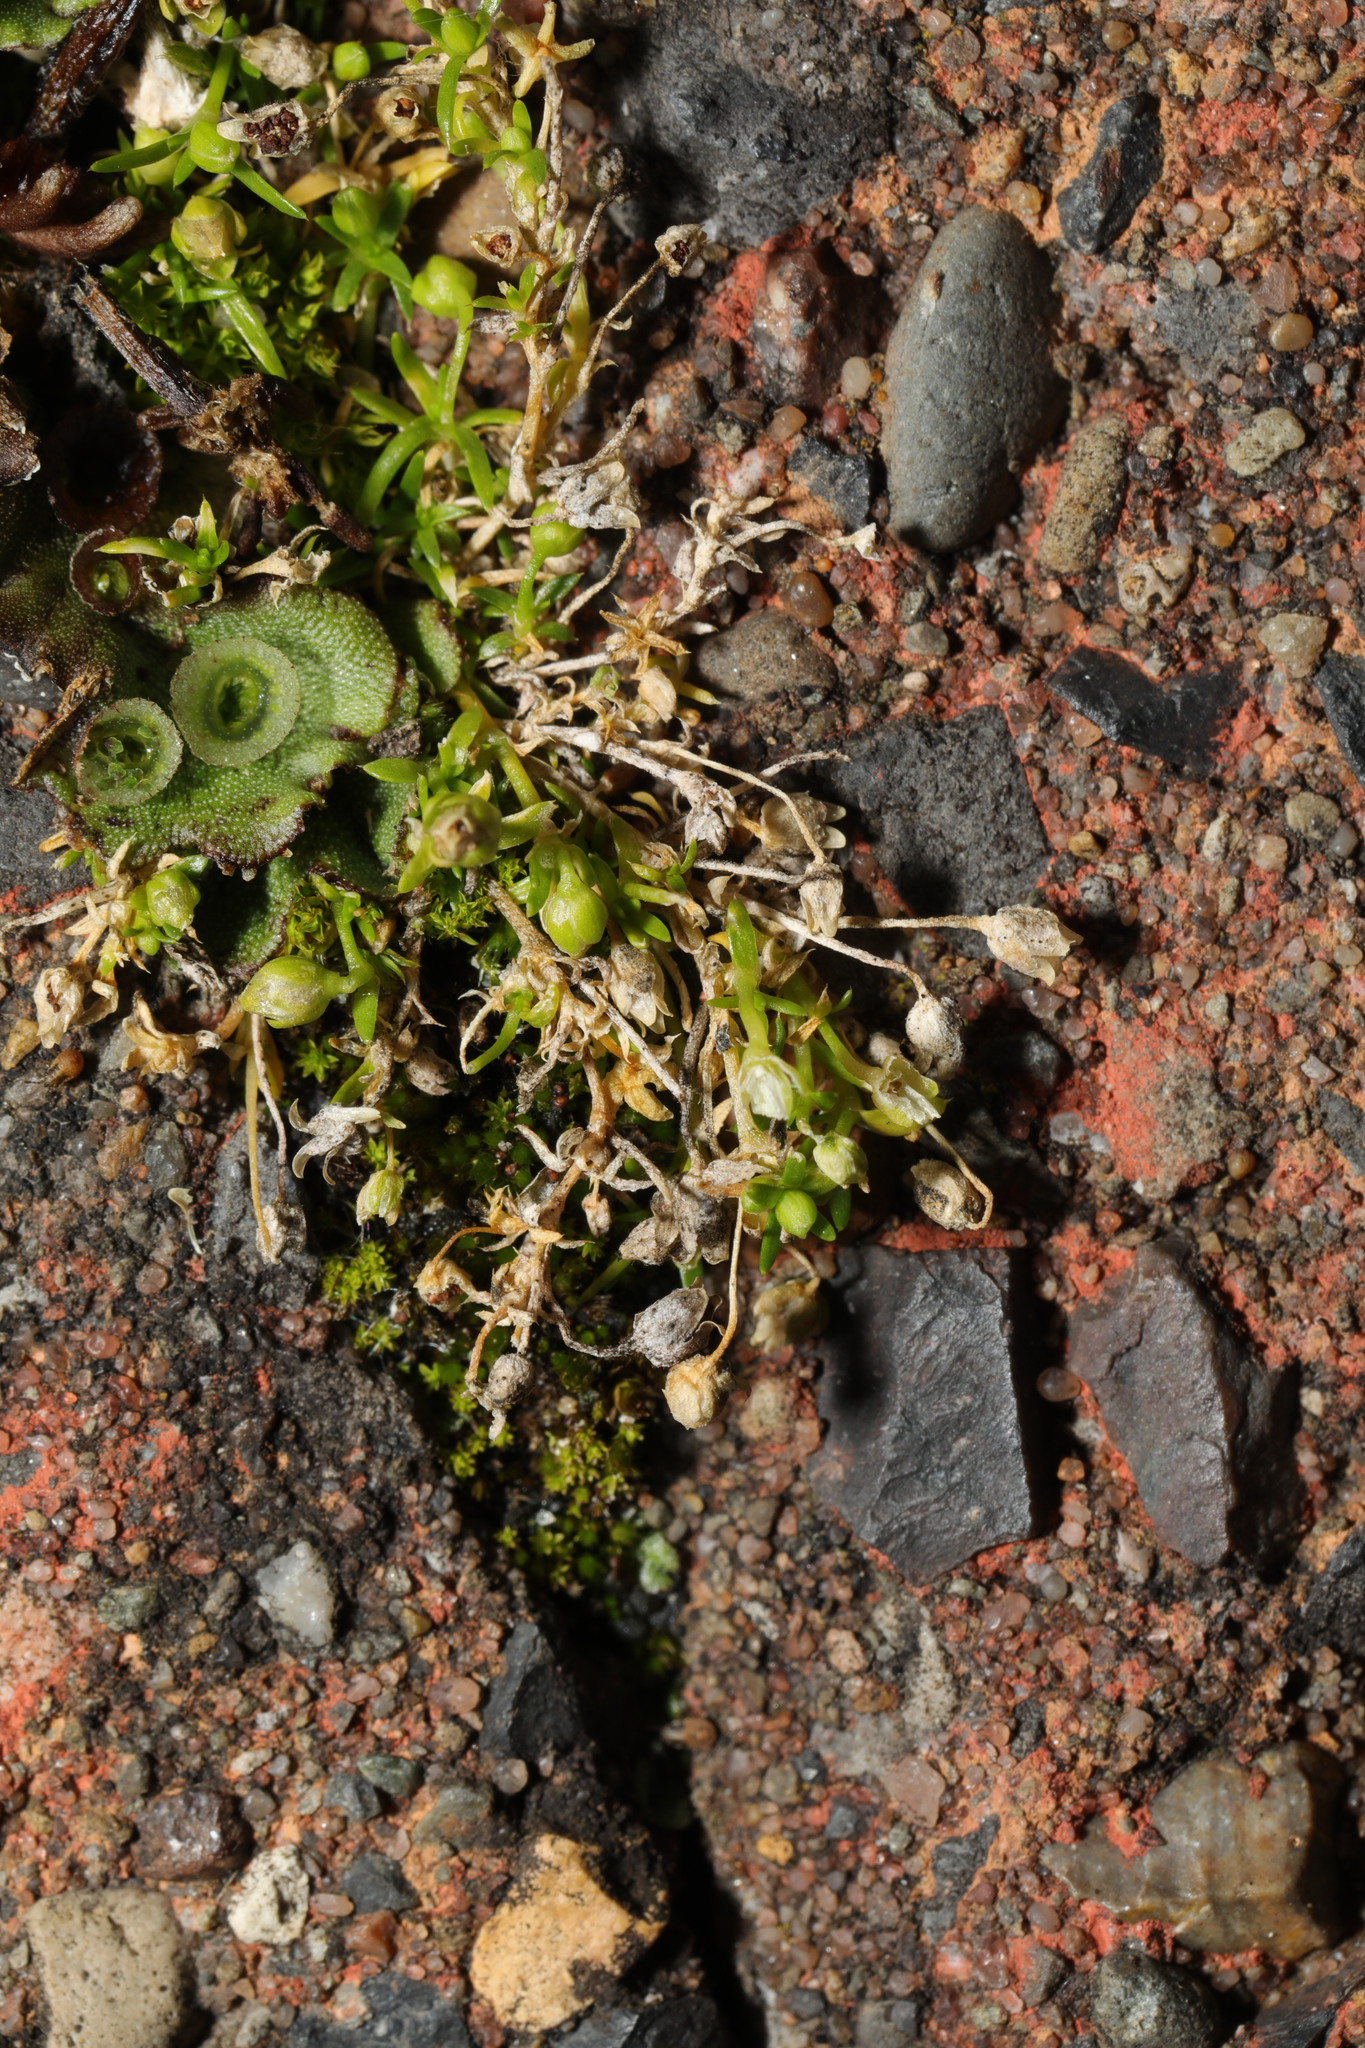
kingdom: Plantae
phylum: Tracheophyta
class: Magnoliopsida
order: Caryophyllales
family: Caryophyllaceae
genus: Sagina
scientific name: Sagina procumbens
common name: Procumbent pearlwort
